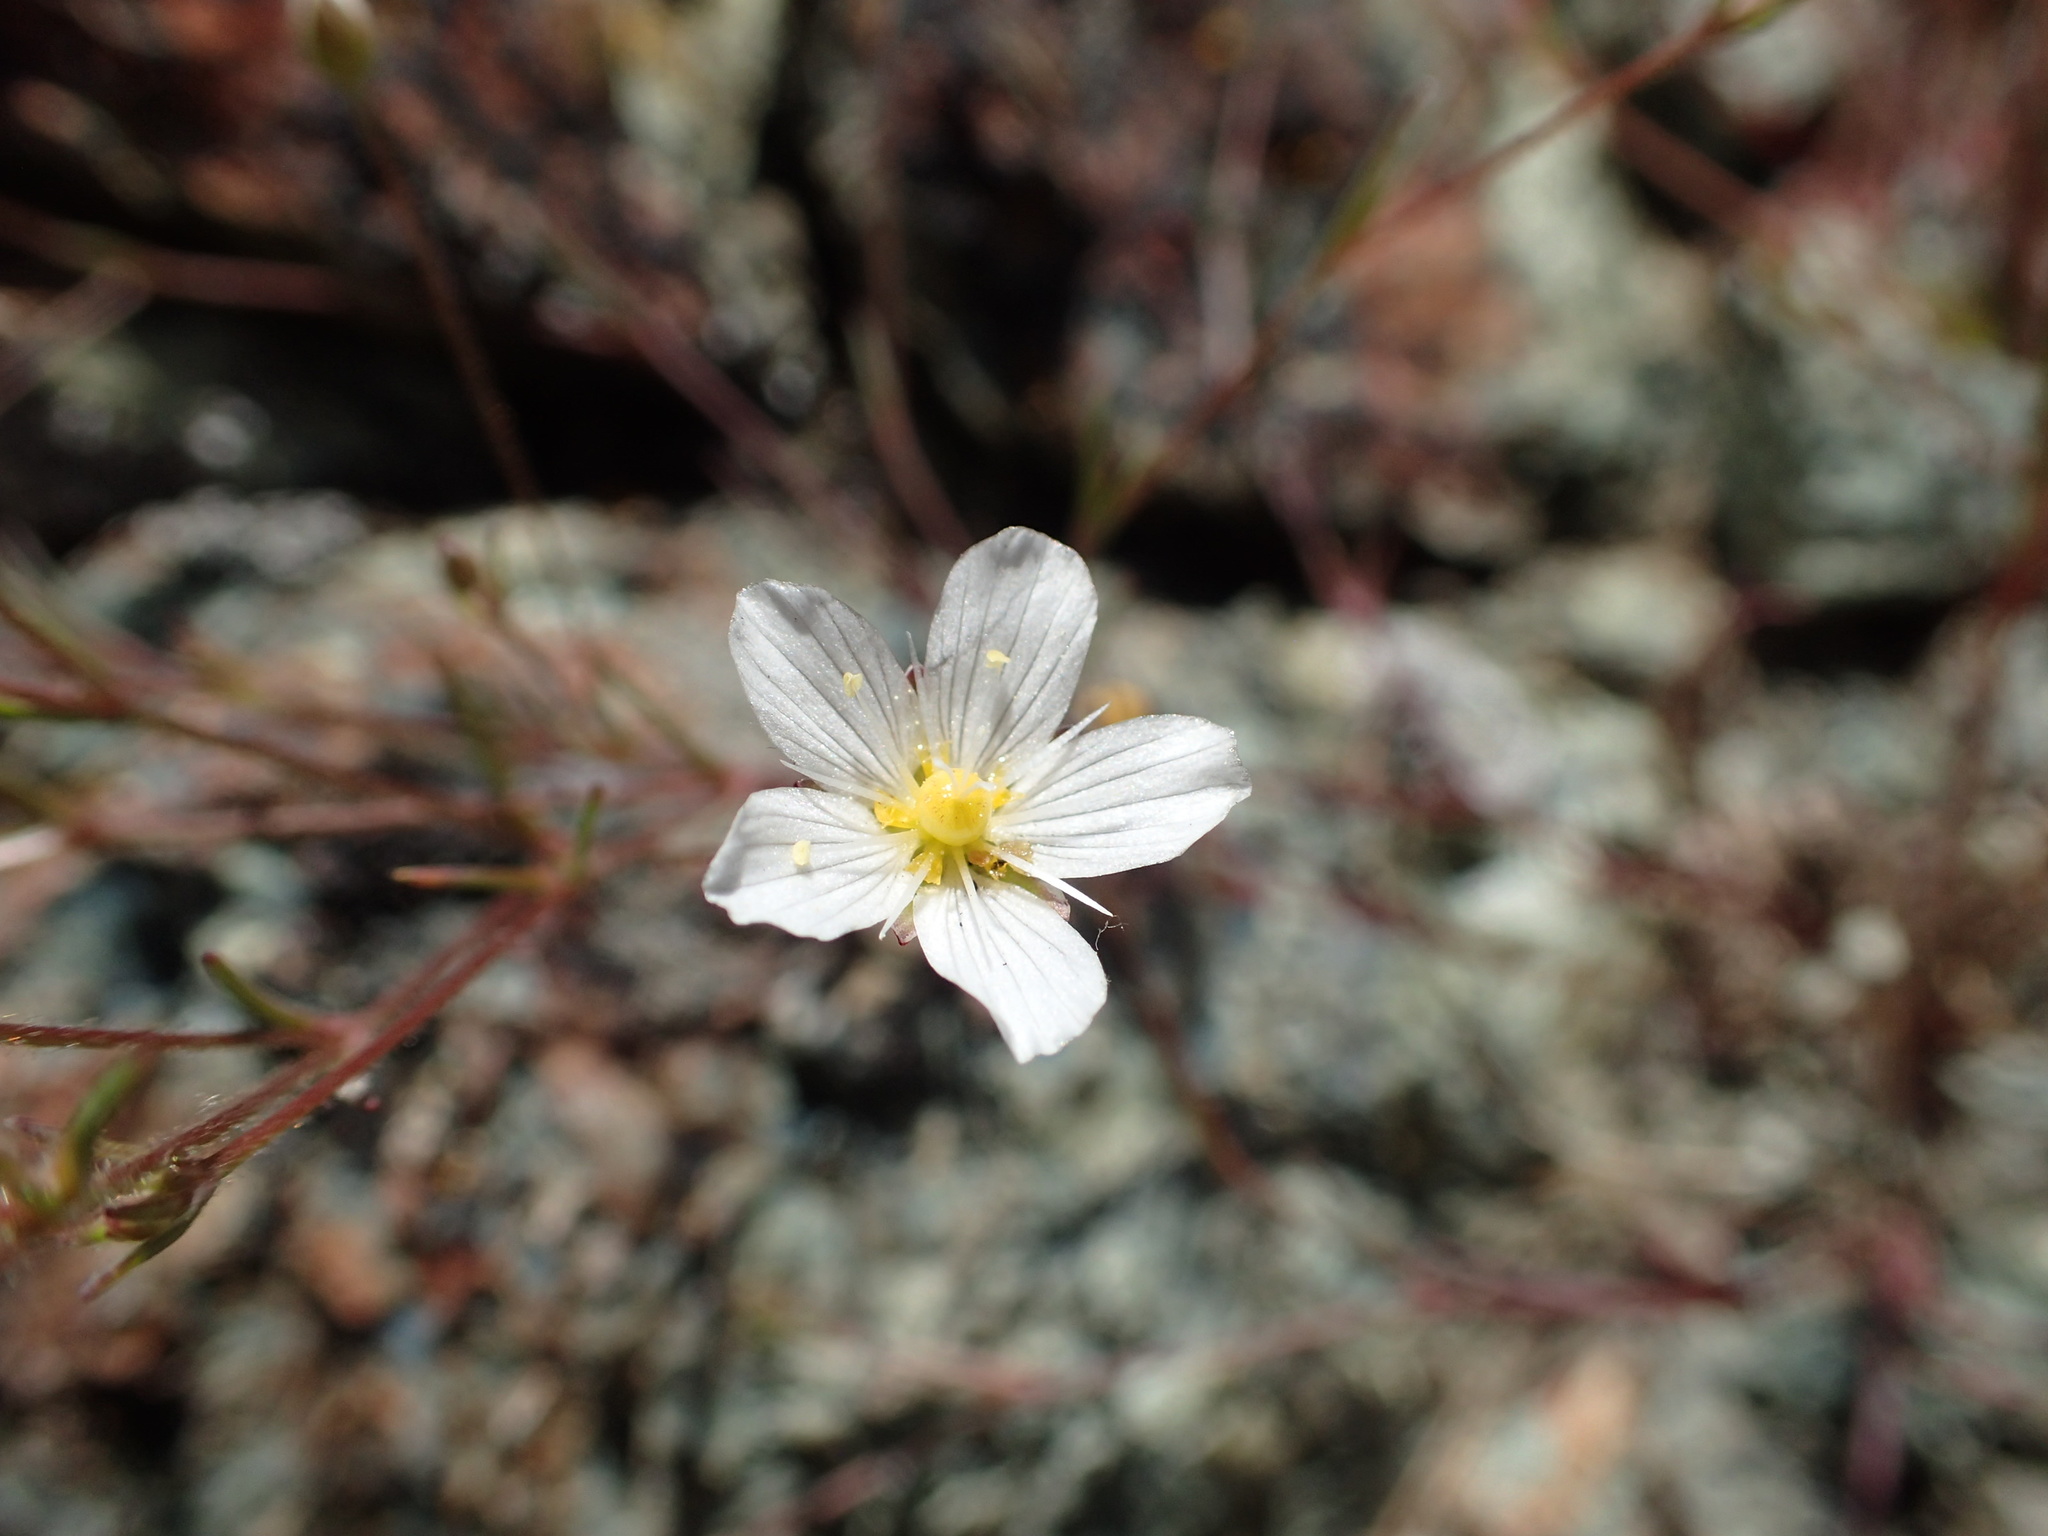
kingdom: Plantae
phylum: Tracheophyta
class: Magnoliopsida
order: Caryophyllales
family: Caryophyllaceae
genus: Sabulina
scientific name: Sabulina douglasii
